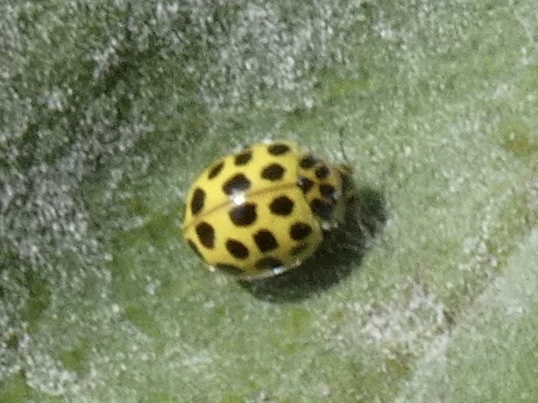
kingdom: Animalia
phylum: Arthropoda
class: Insecta
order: Coleoptera
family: Coccinellidae
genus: Psyllobora
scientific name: Psyllobora vigintiduopunctata
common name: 22-spot ladybird
